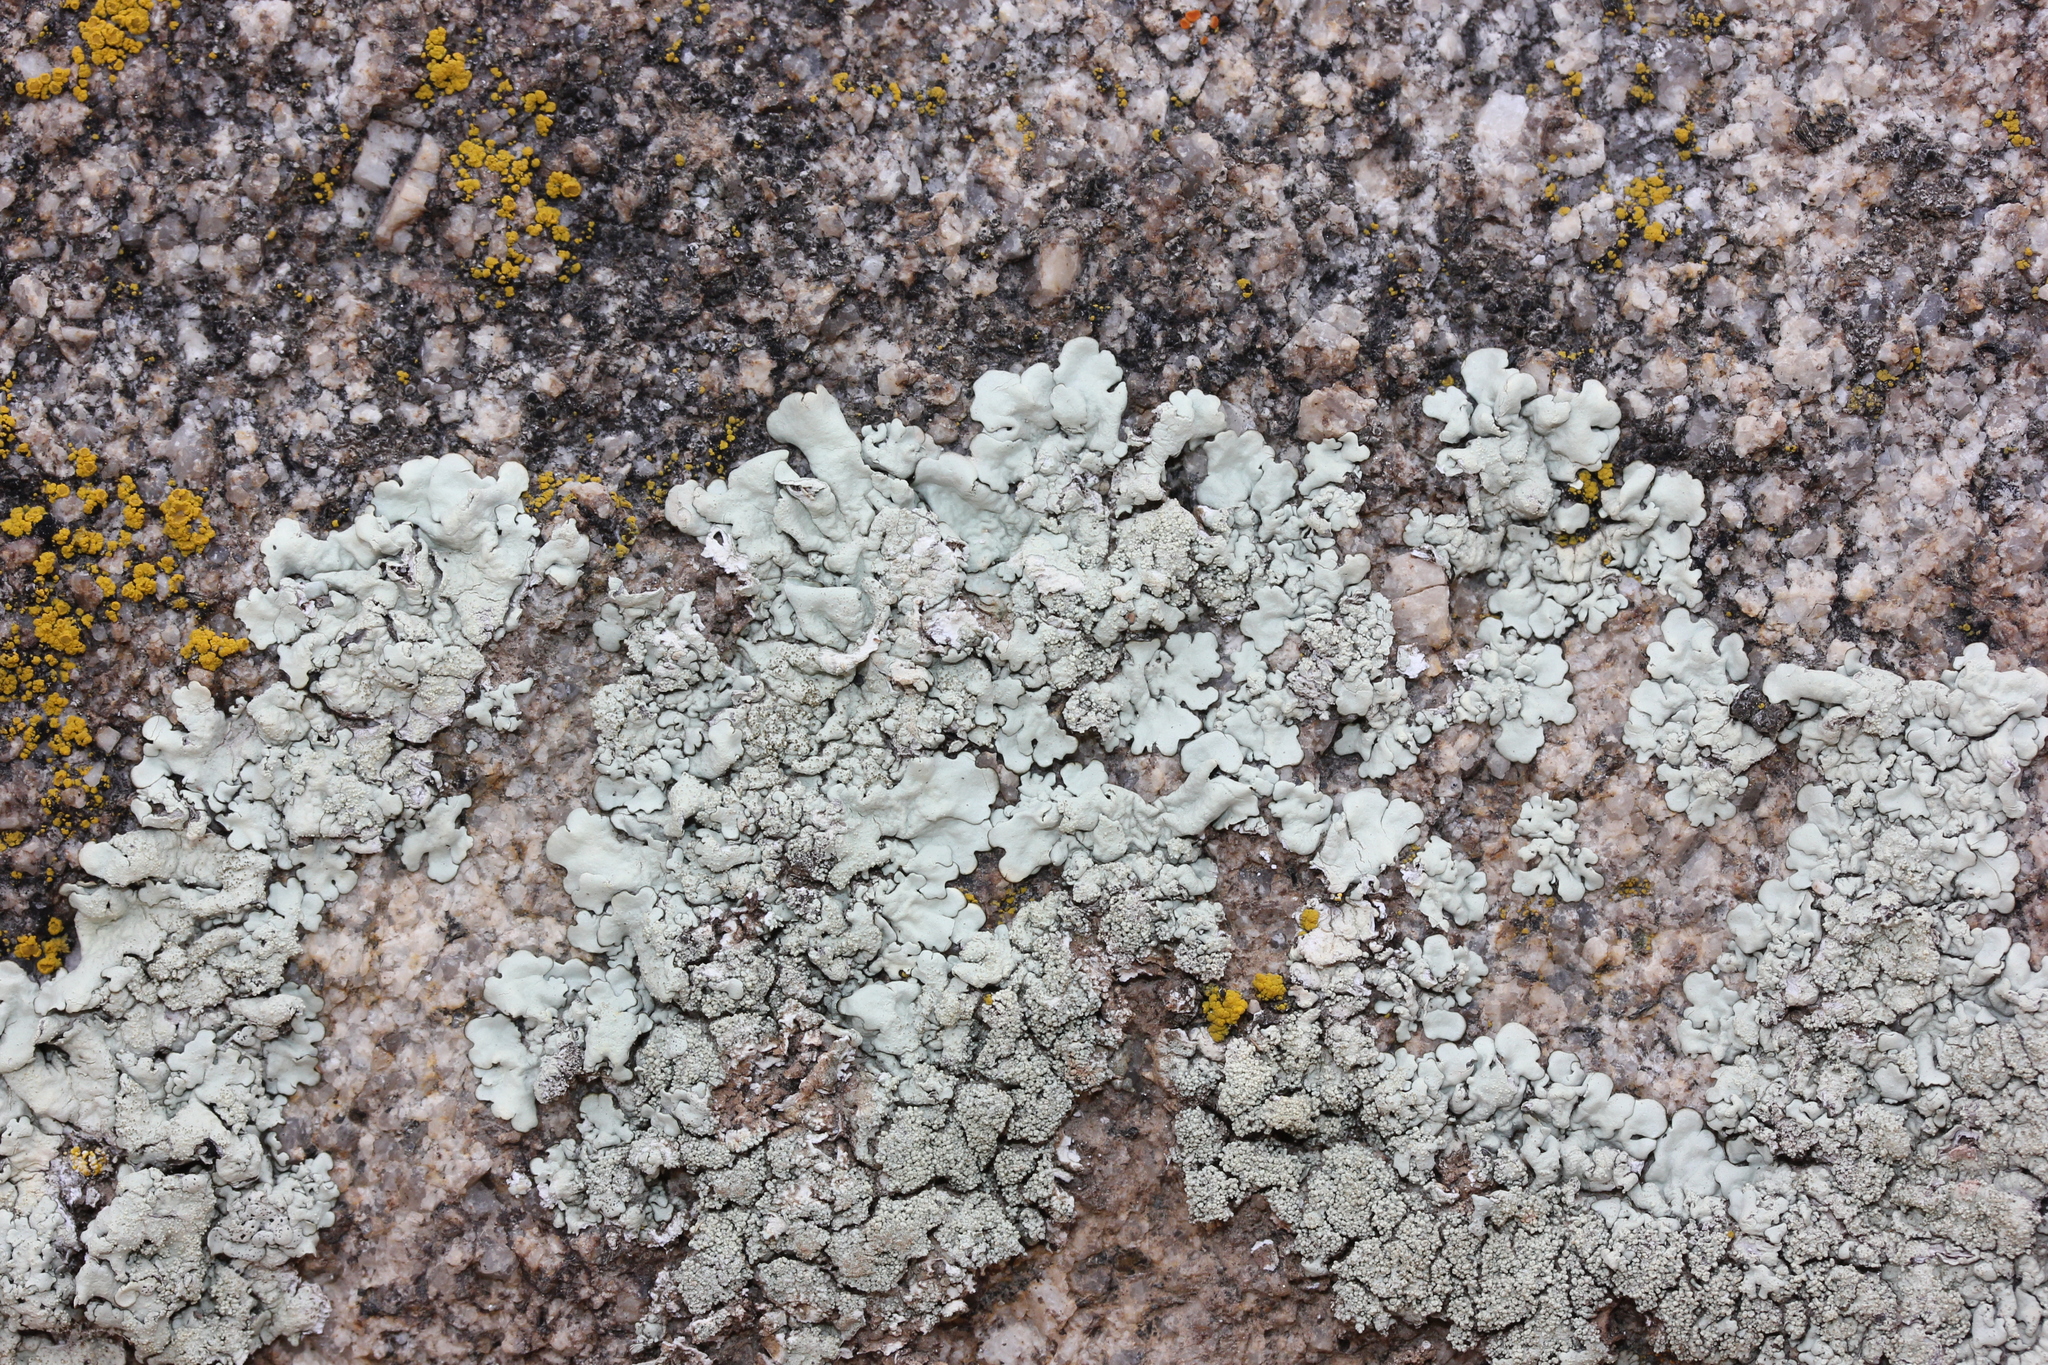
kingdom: Fungi
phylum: Ascomycota
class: Candelariomycetes
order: Candelariales
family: Candelariaceae
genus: Candelariella
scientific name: Candelariella rosulans
